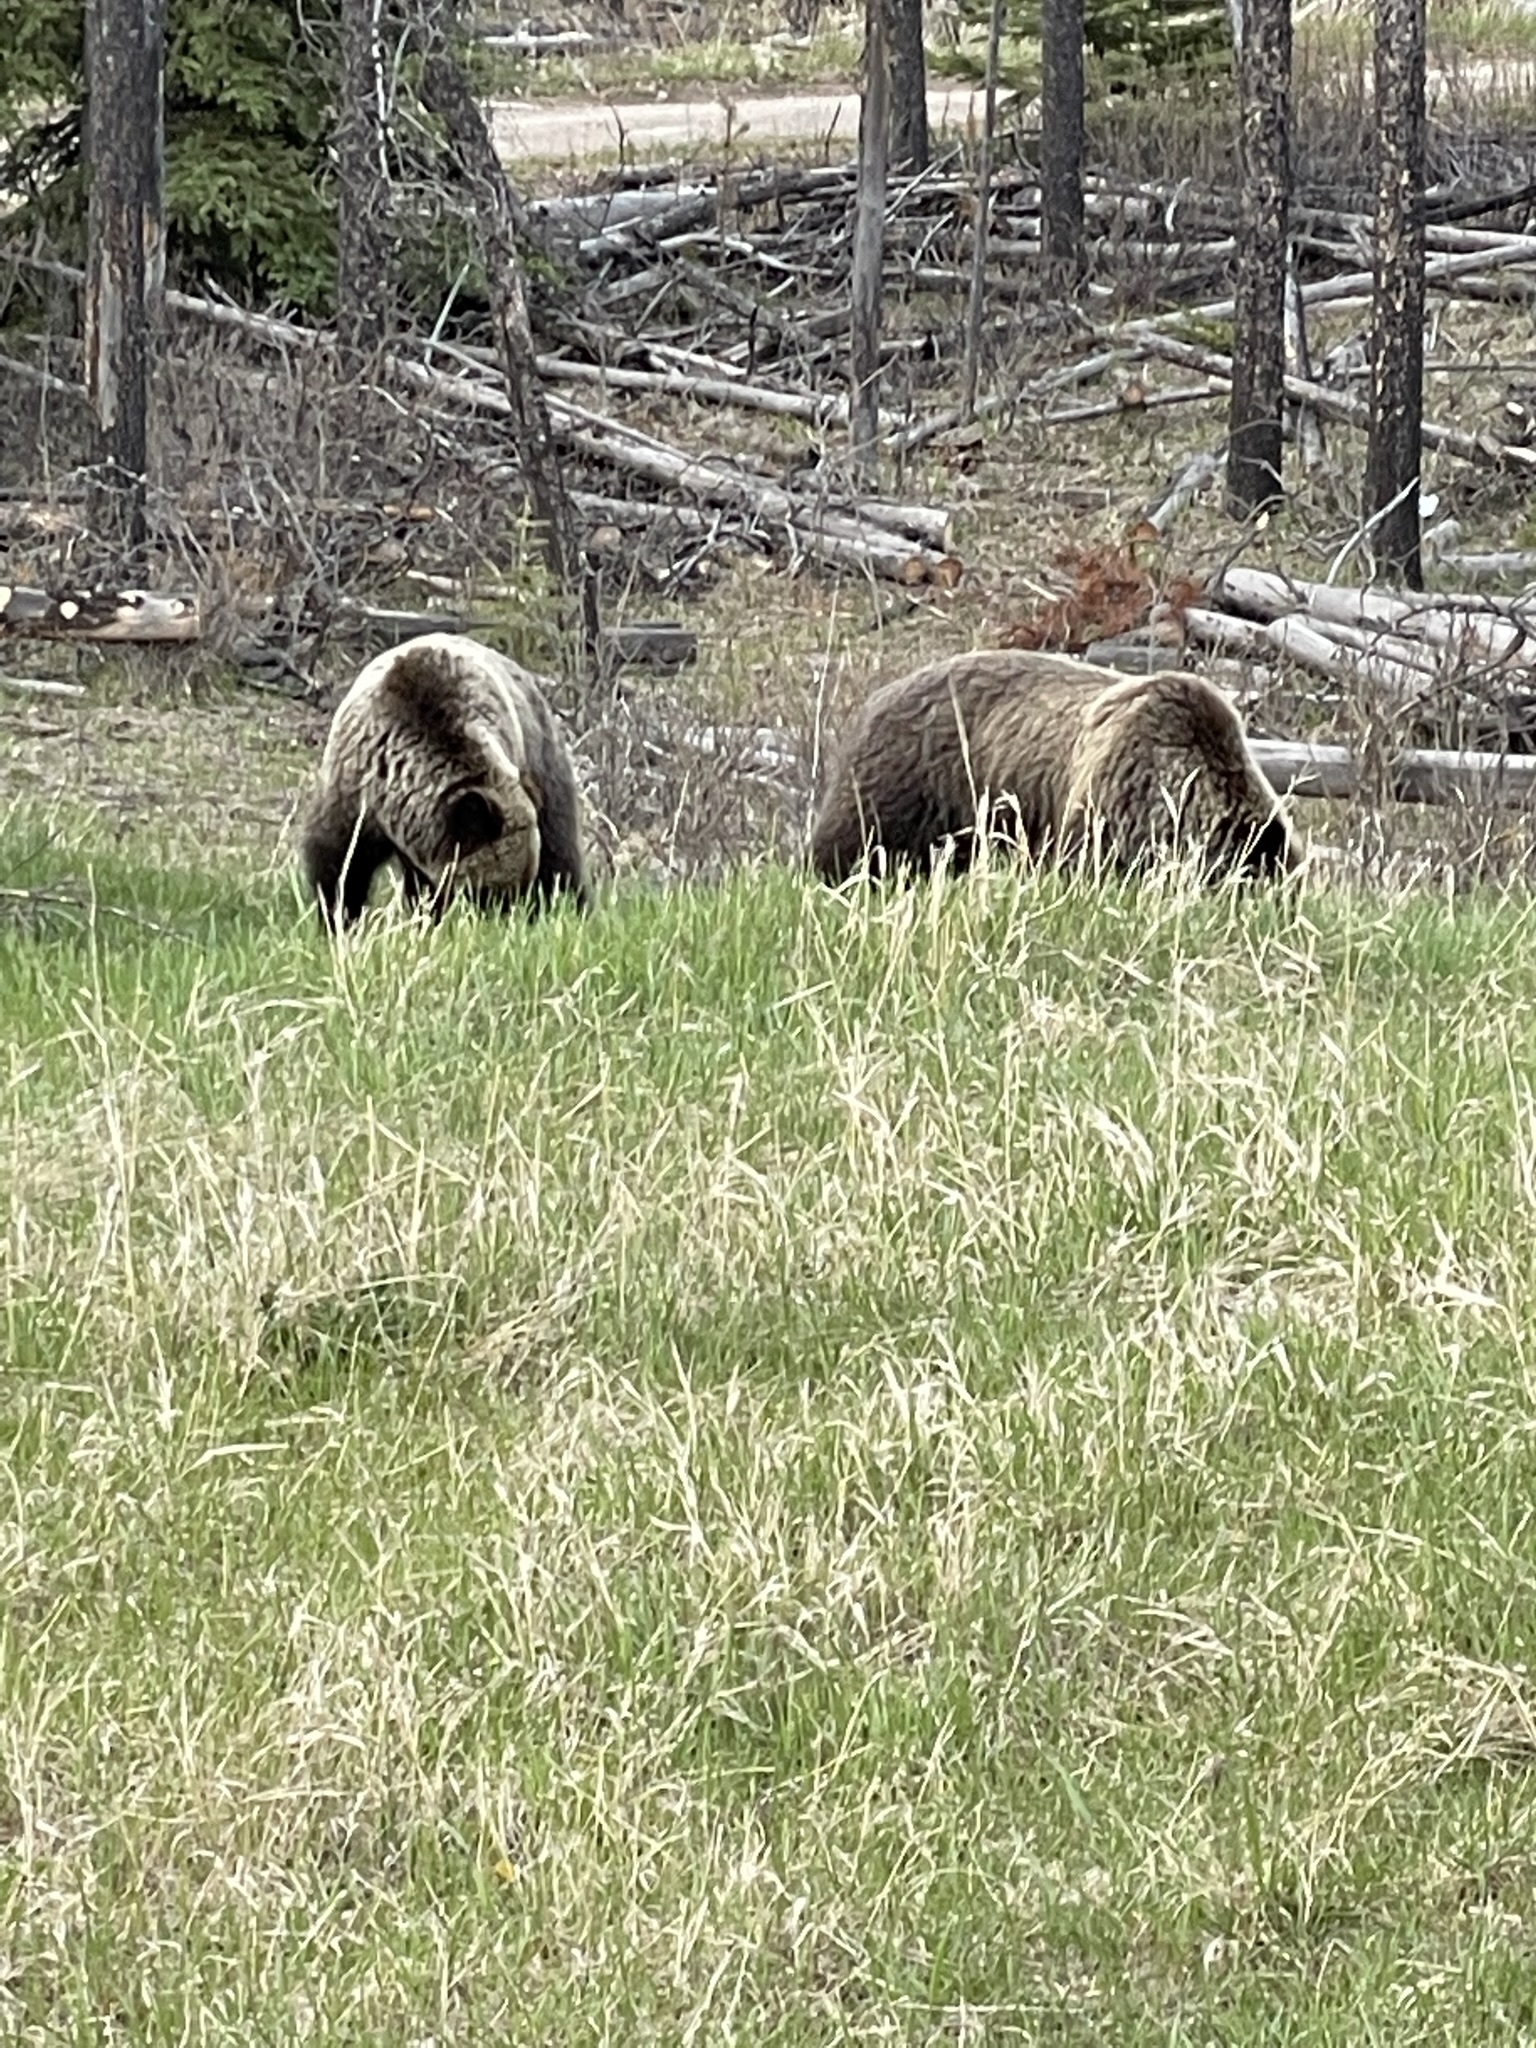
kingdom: Animalia
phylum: Chordata
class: Mammalia
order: Carnivora
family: Ursidae
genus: Ursus
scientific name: Ursus arctos
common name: Brown bear
